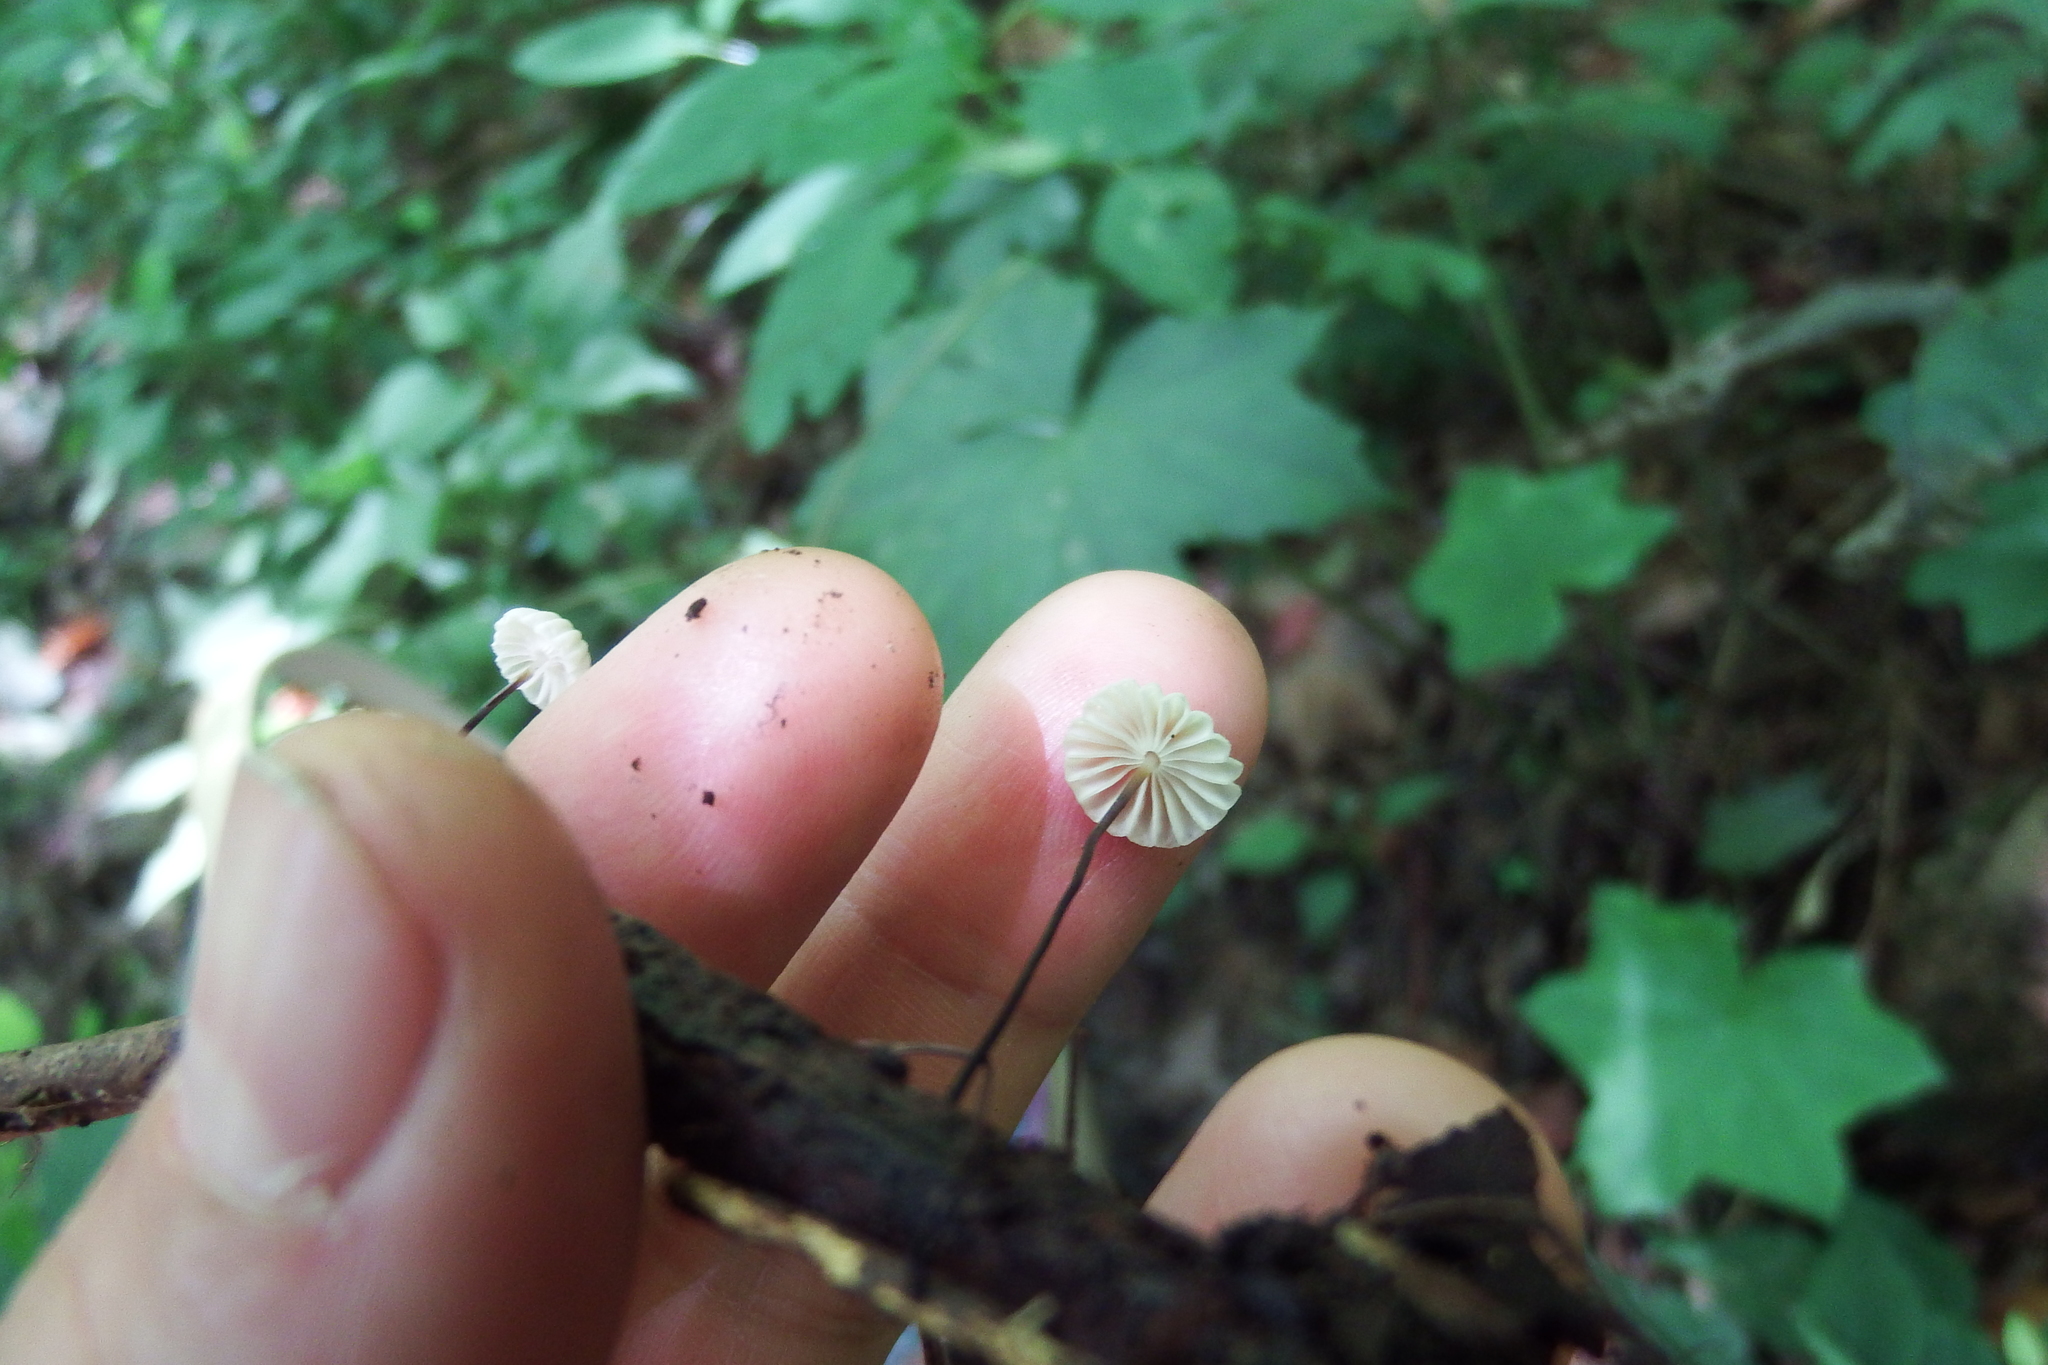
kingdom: Fungi
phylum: Basidiomycota
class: Agaricomycetes
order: Agaricales
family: Marasmiaceae
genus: Marasmius
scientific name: Marasmius rotula
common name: Collared parachute
